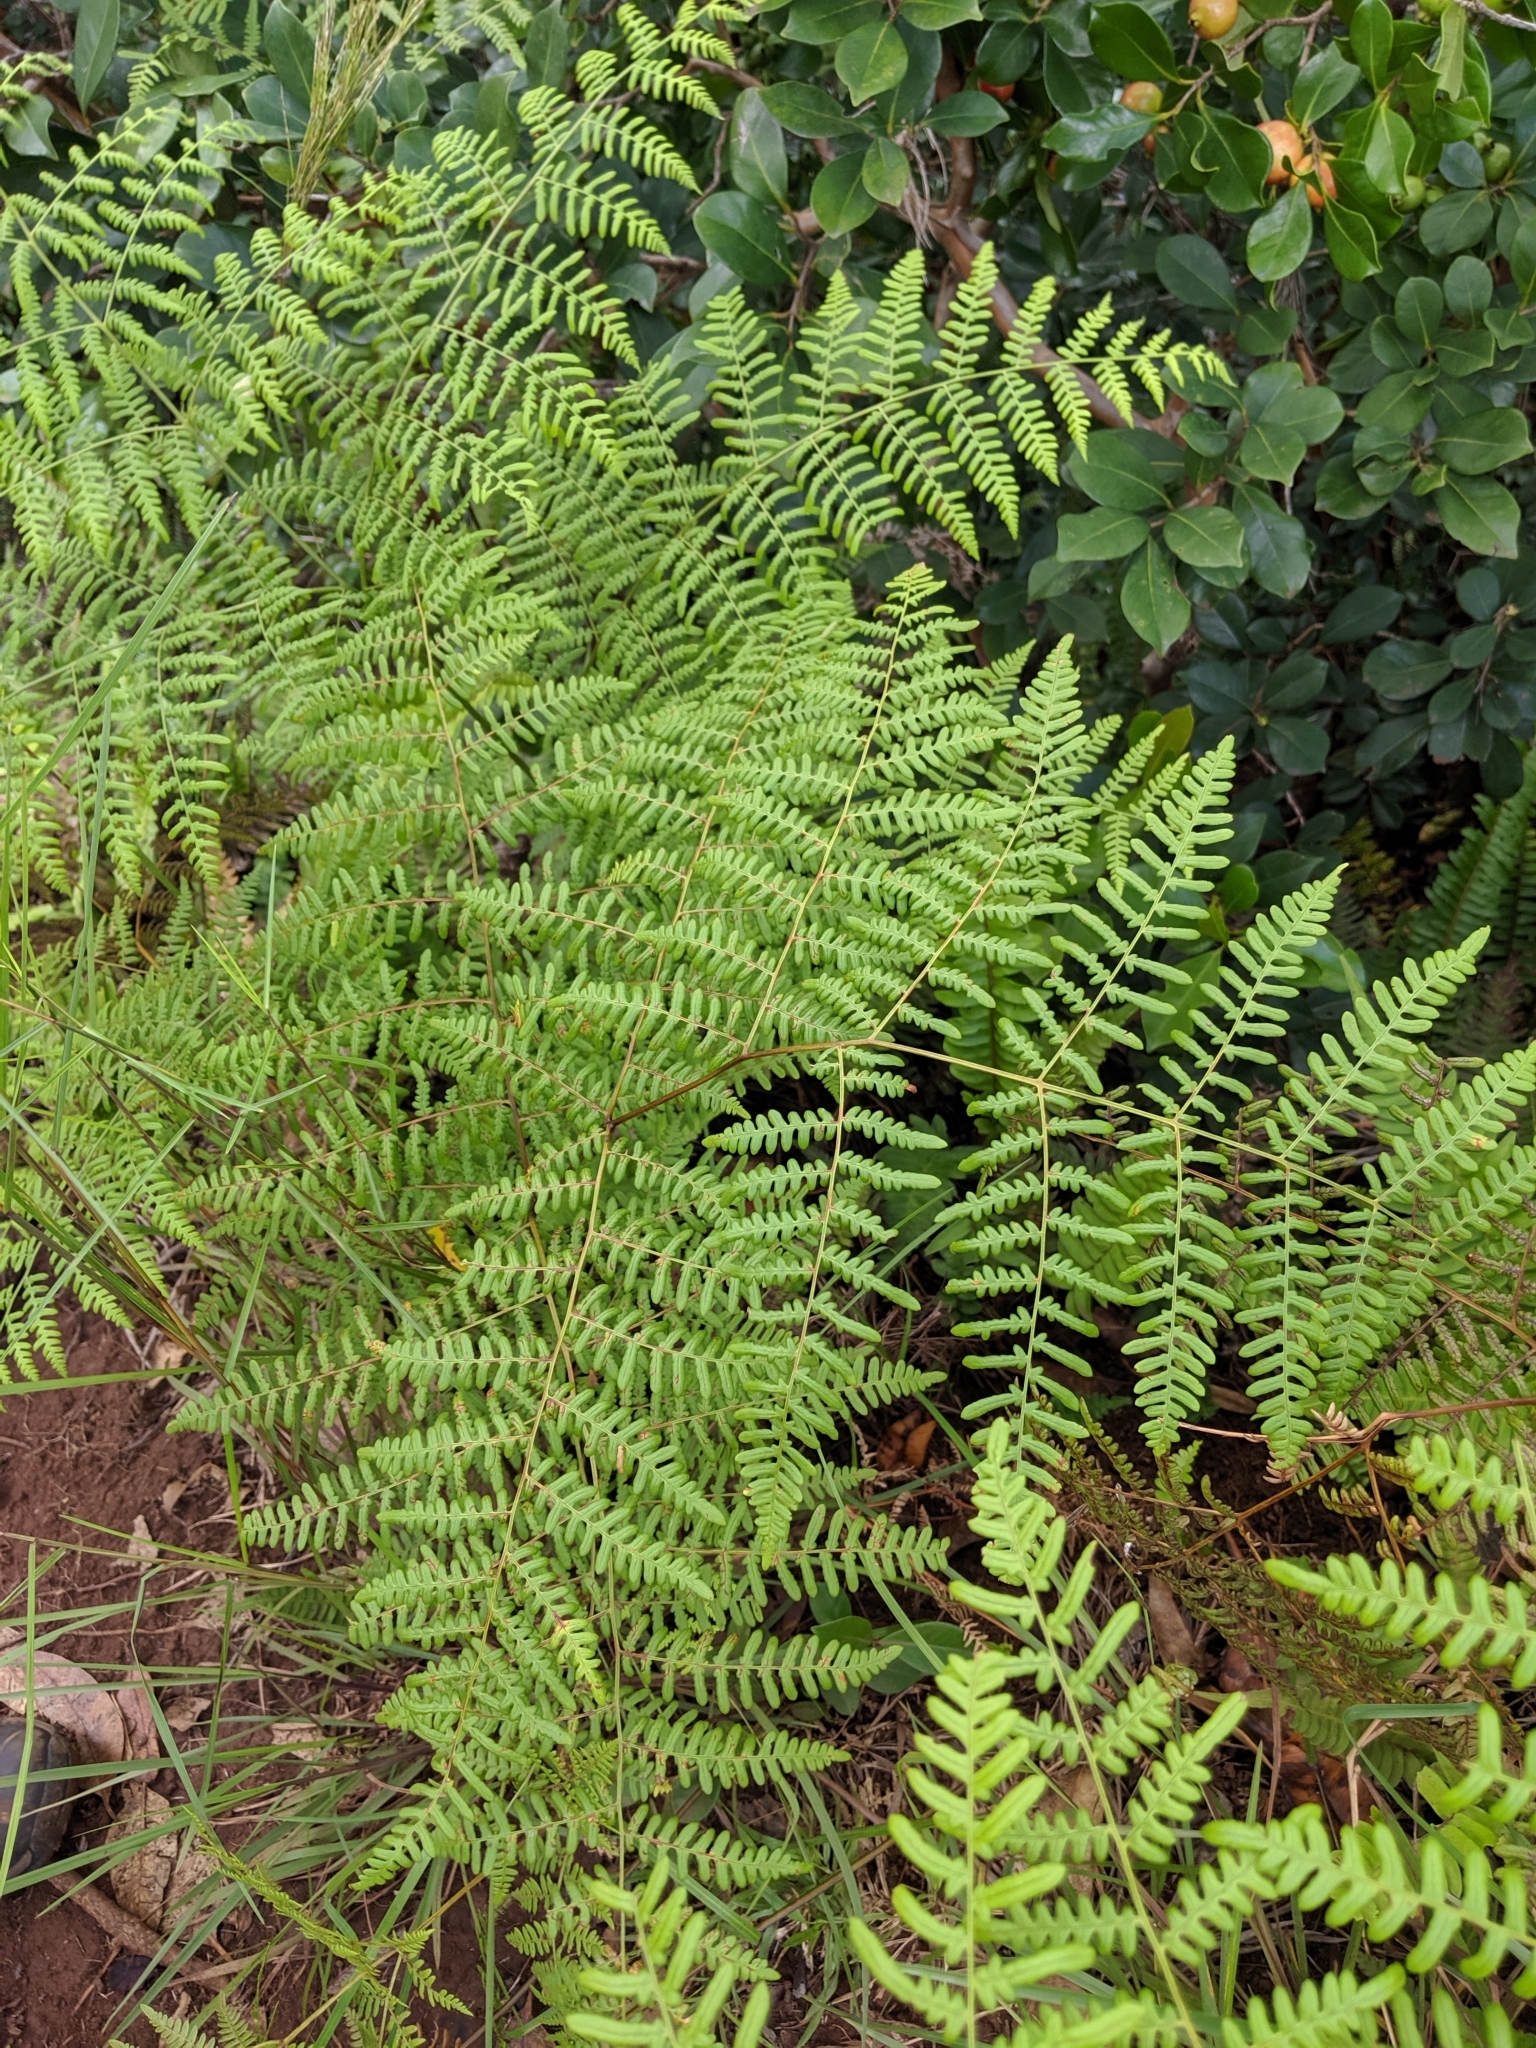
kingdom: Plantae
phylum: Tracheophyta
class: Polypodiopsida
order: Polypodiales
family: Dennstaedtiaceae
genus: Pteridium
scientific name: Pteridium aquilinum
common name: Bracken
